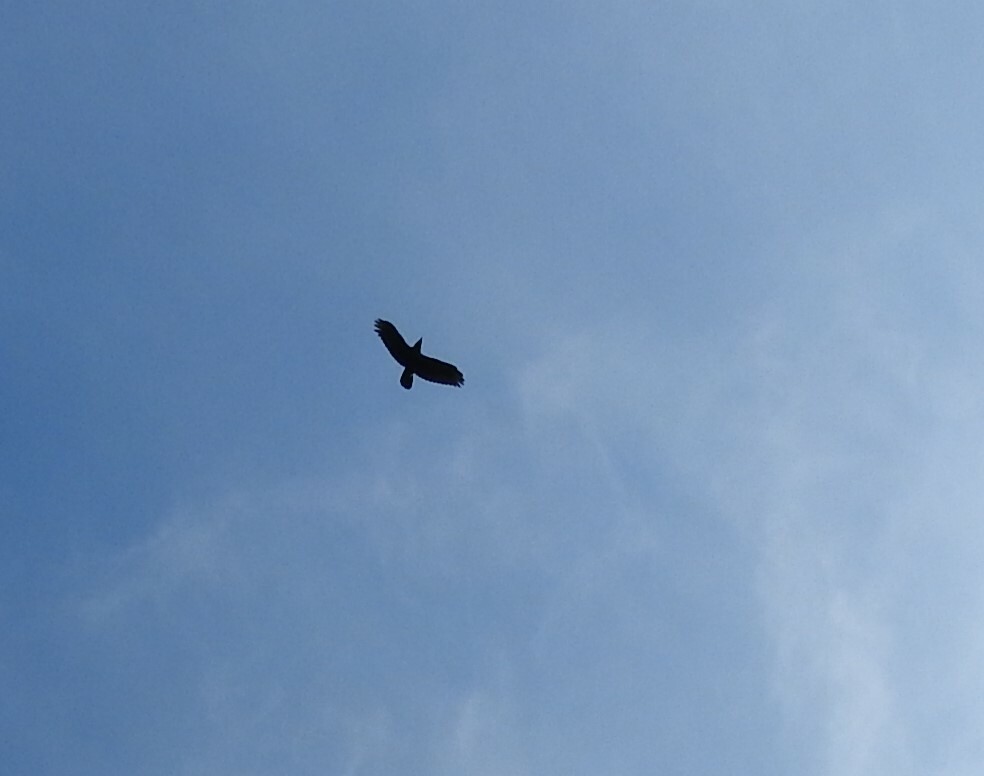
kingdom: Animalia
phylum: Chordata
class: Aves
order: Passeriformes
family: Corvidae
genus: Corvus
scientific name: Corvus corax
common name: Common raven
